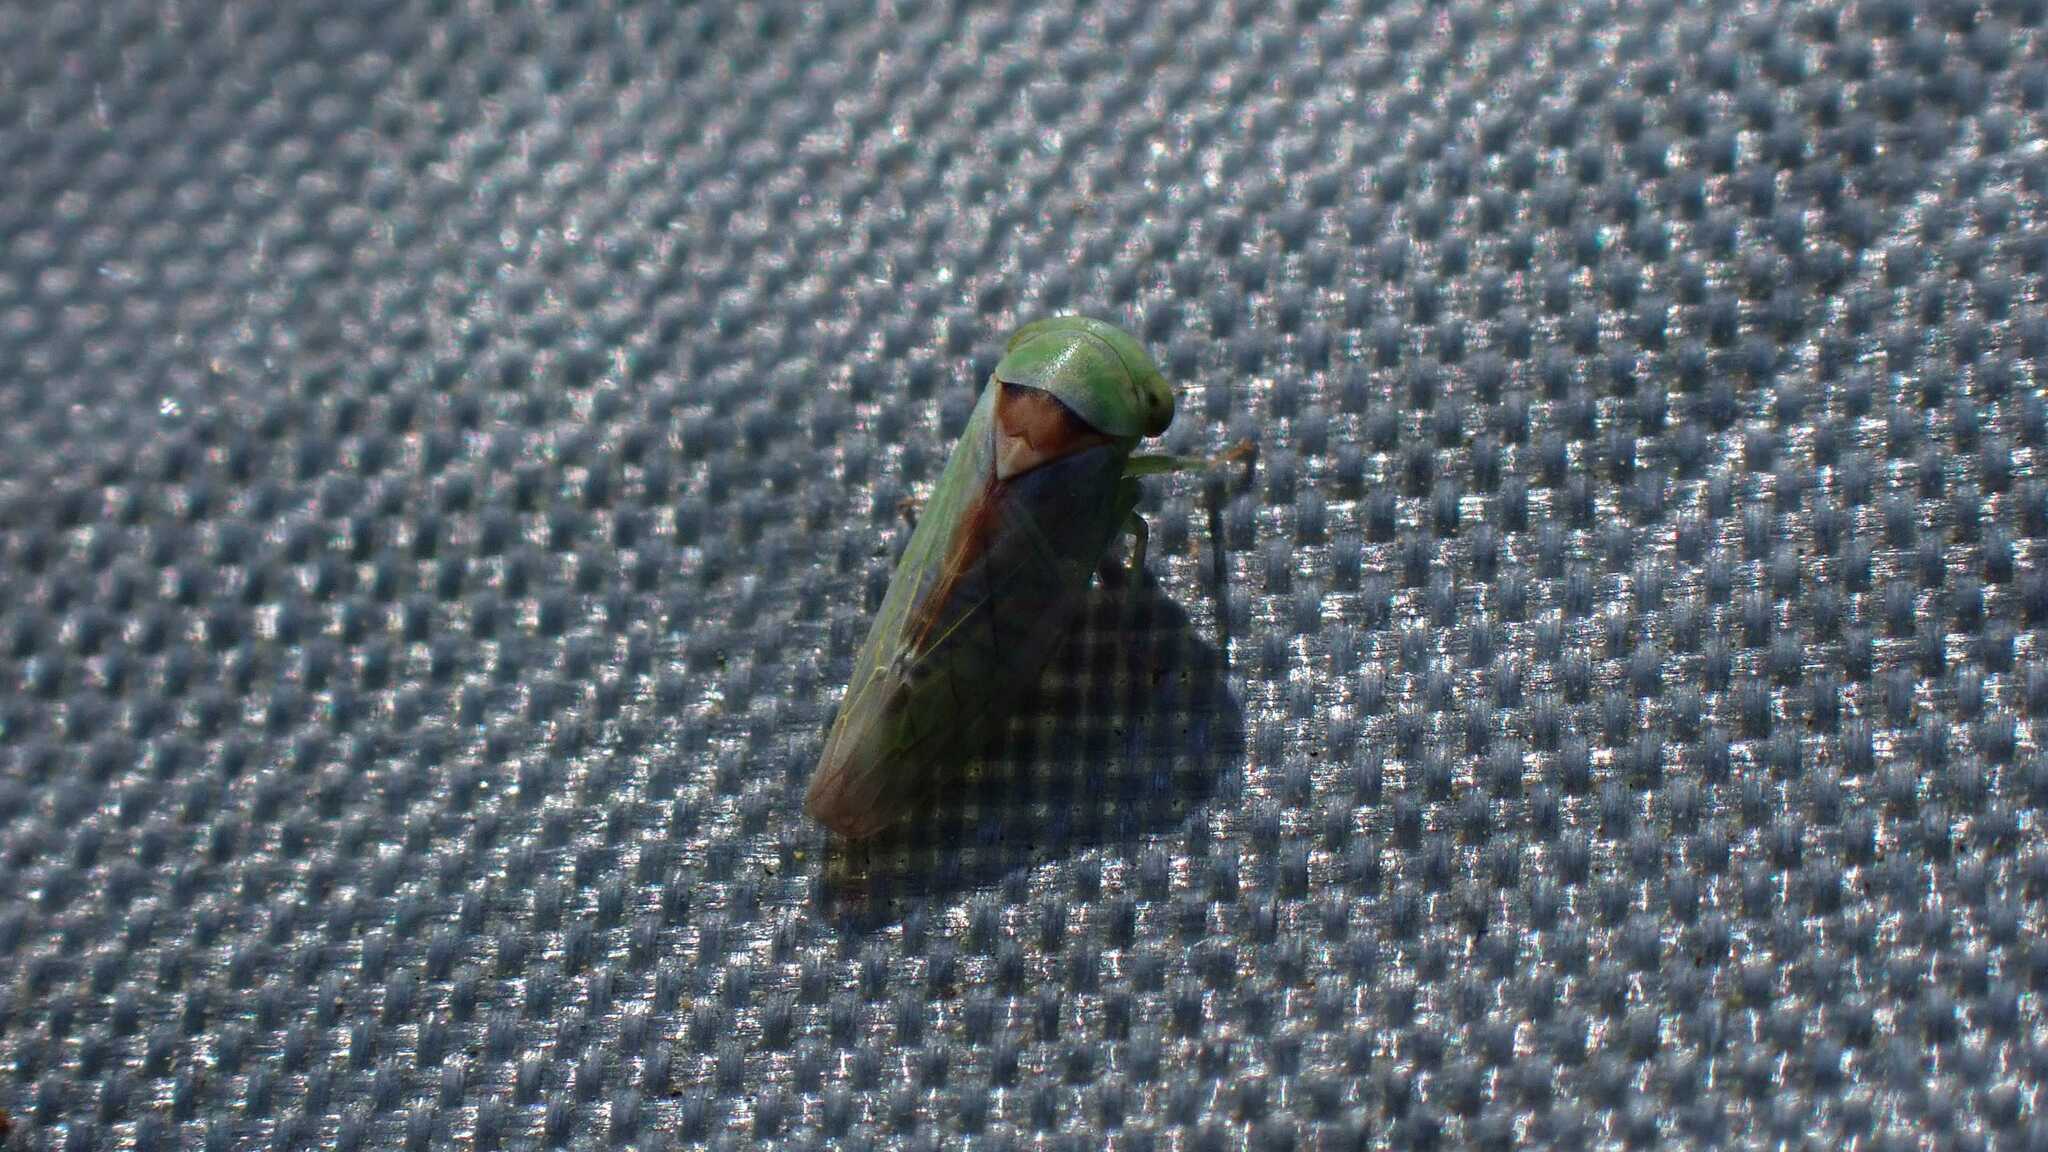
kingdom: Animalia
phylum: Arthropoda
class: Insecta
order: Hemiptera
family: Cicadellidae
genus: Viridicerus
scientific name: Viridicerus ustulatus
